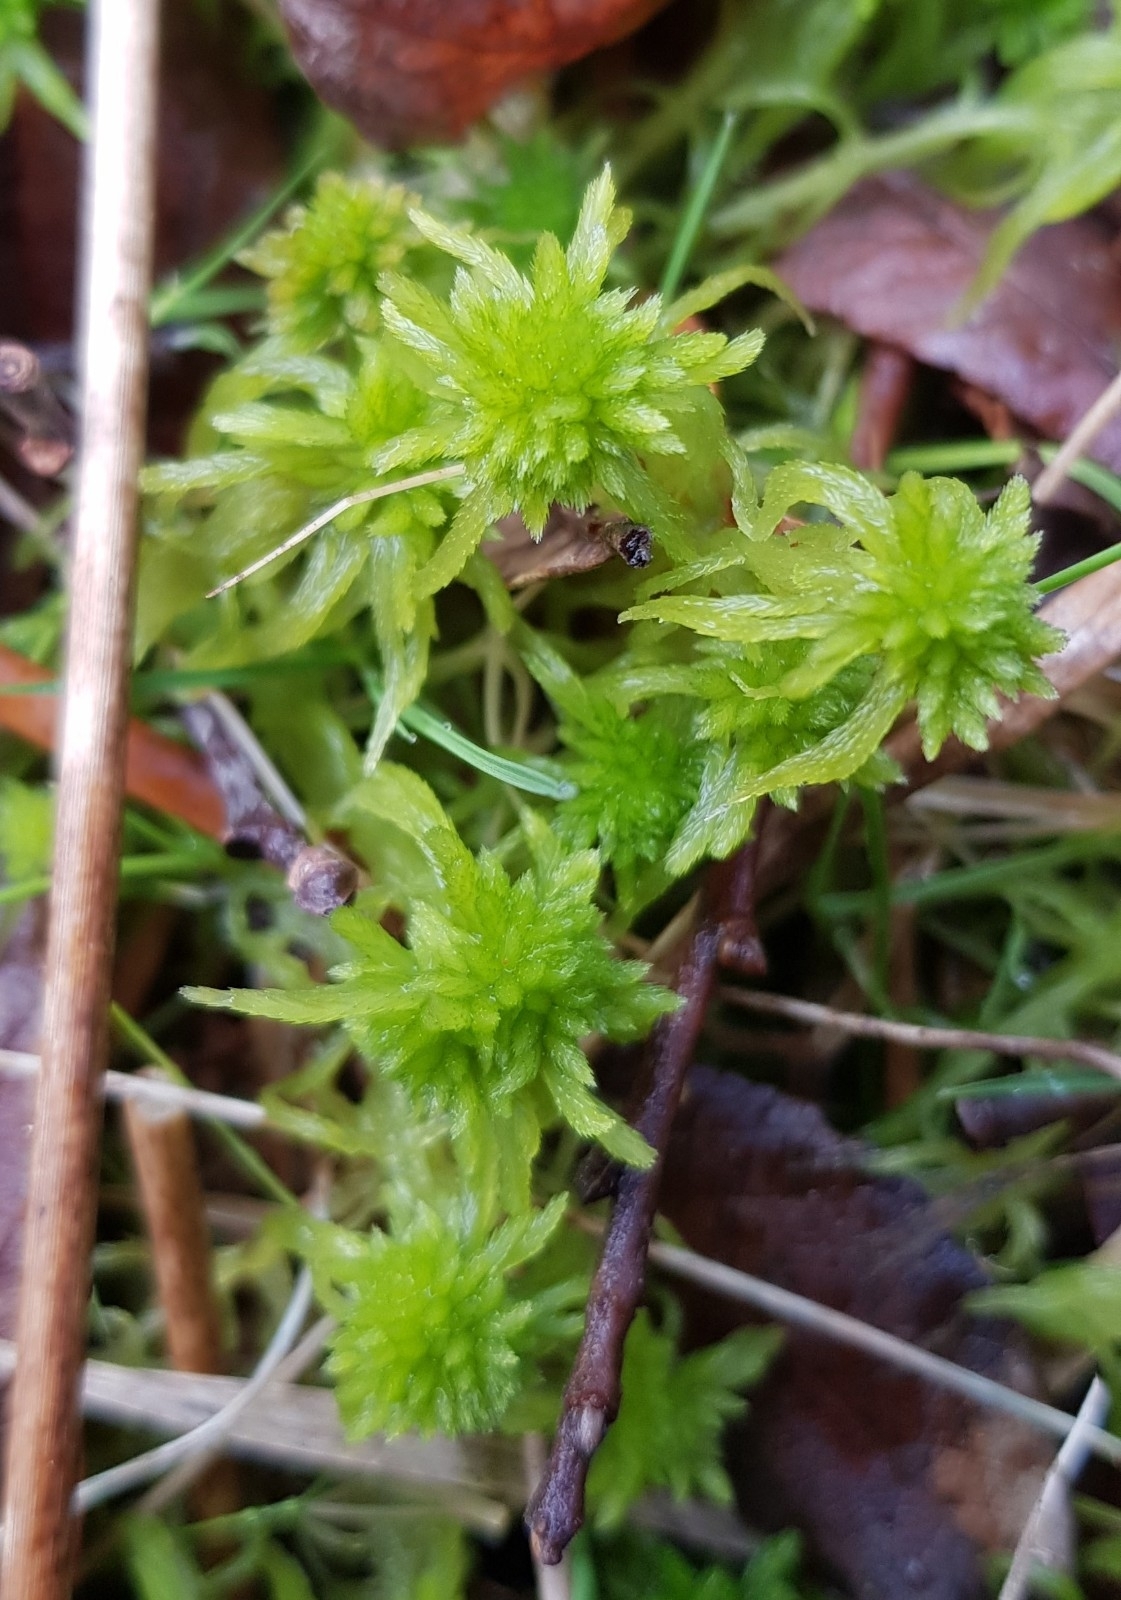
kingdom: Plantae
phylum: Bryophyta
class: Sphagnopsida
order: Sphagnales
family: Sphagnaceae
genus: Sphagnum
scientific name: Sphagnum flexuosum
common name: Flexible peat moss
